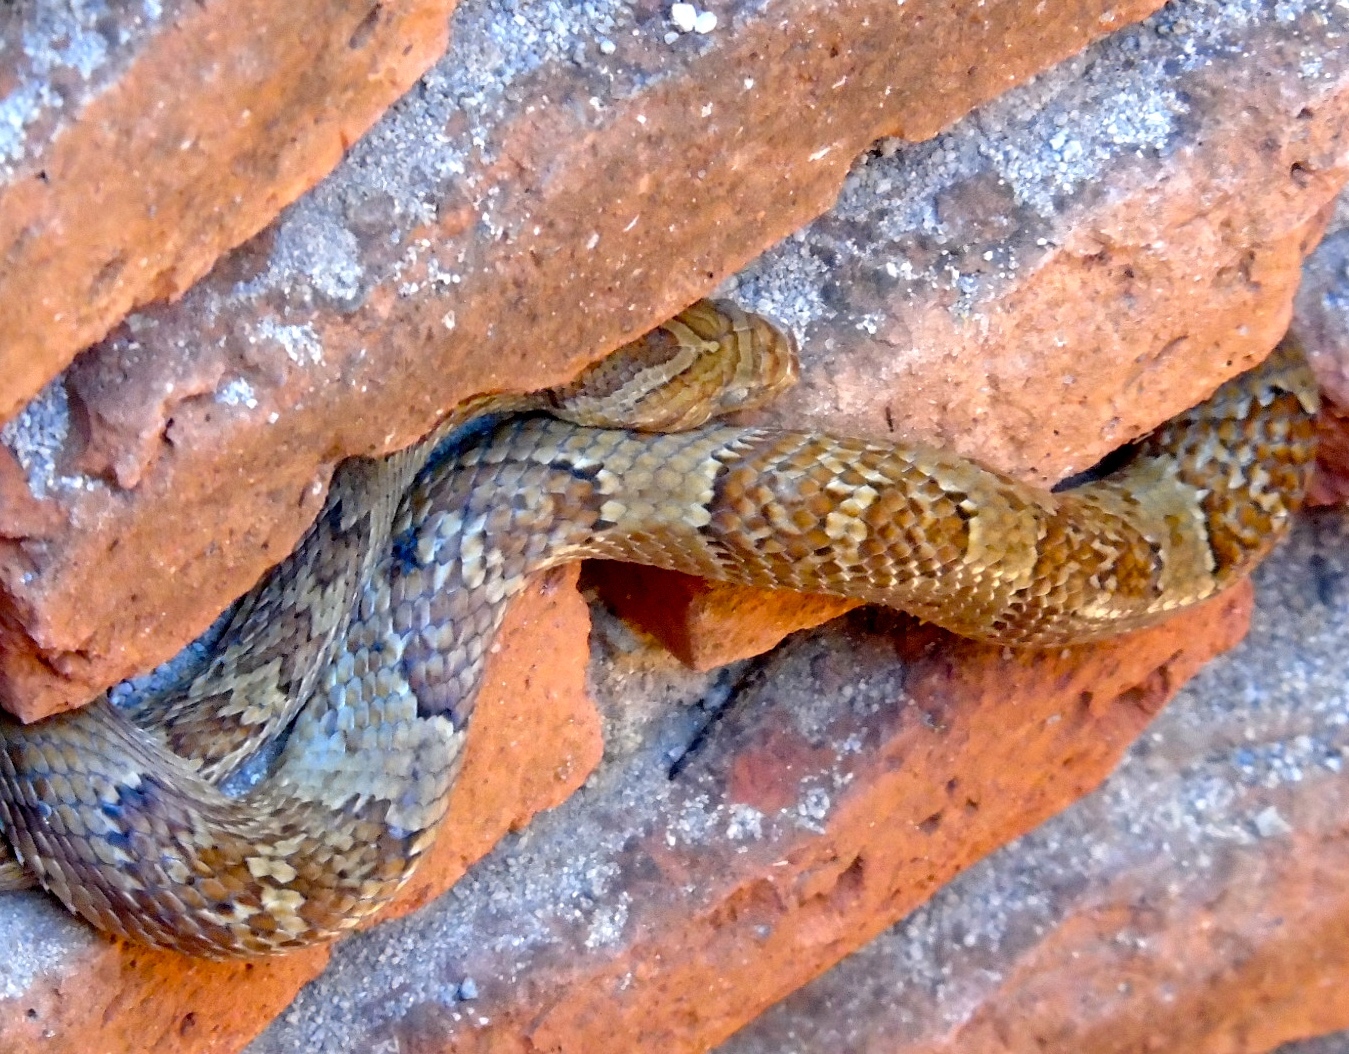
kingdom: Animalia
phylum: Chordata
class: Squamata
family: Colubridae
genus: Trimorphodon
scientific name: Trimorphodon paucimaculatus
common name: Sinaloan lyresnake
